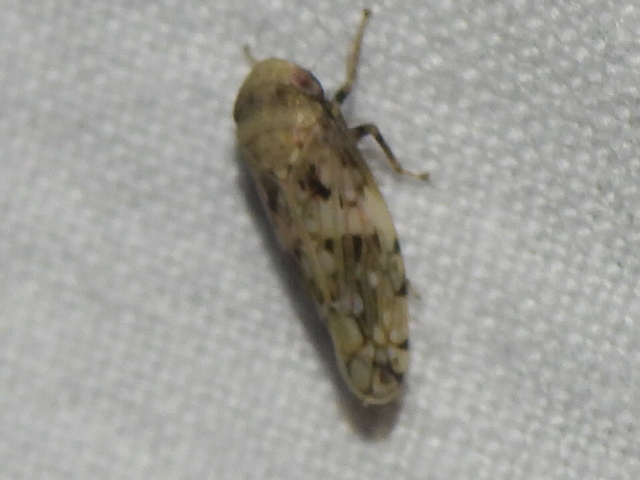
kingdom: Animalia
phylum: Arthropoda
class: Insecta
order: Hemiptera
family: Cicadellidae
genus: Menosoma
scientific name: Menosoma cinctum
